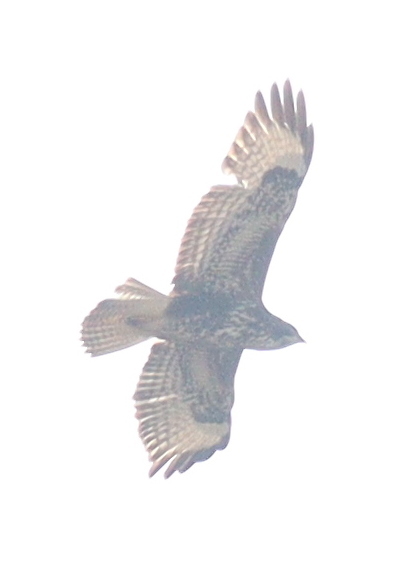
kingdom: Animalia
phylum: Chordata
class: Aves
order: Accipitriformes
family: Accipitridae
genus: Buteo
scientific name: Buteo buteo
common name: Common buzzard
